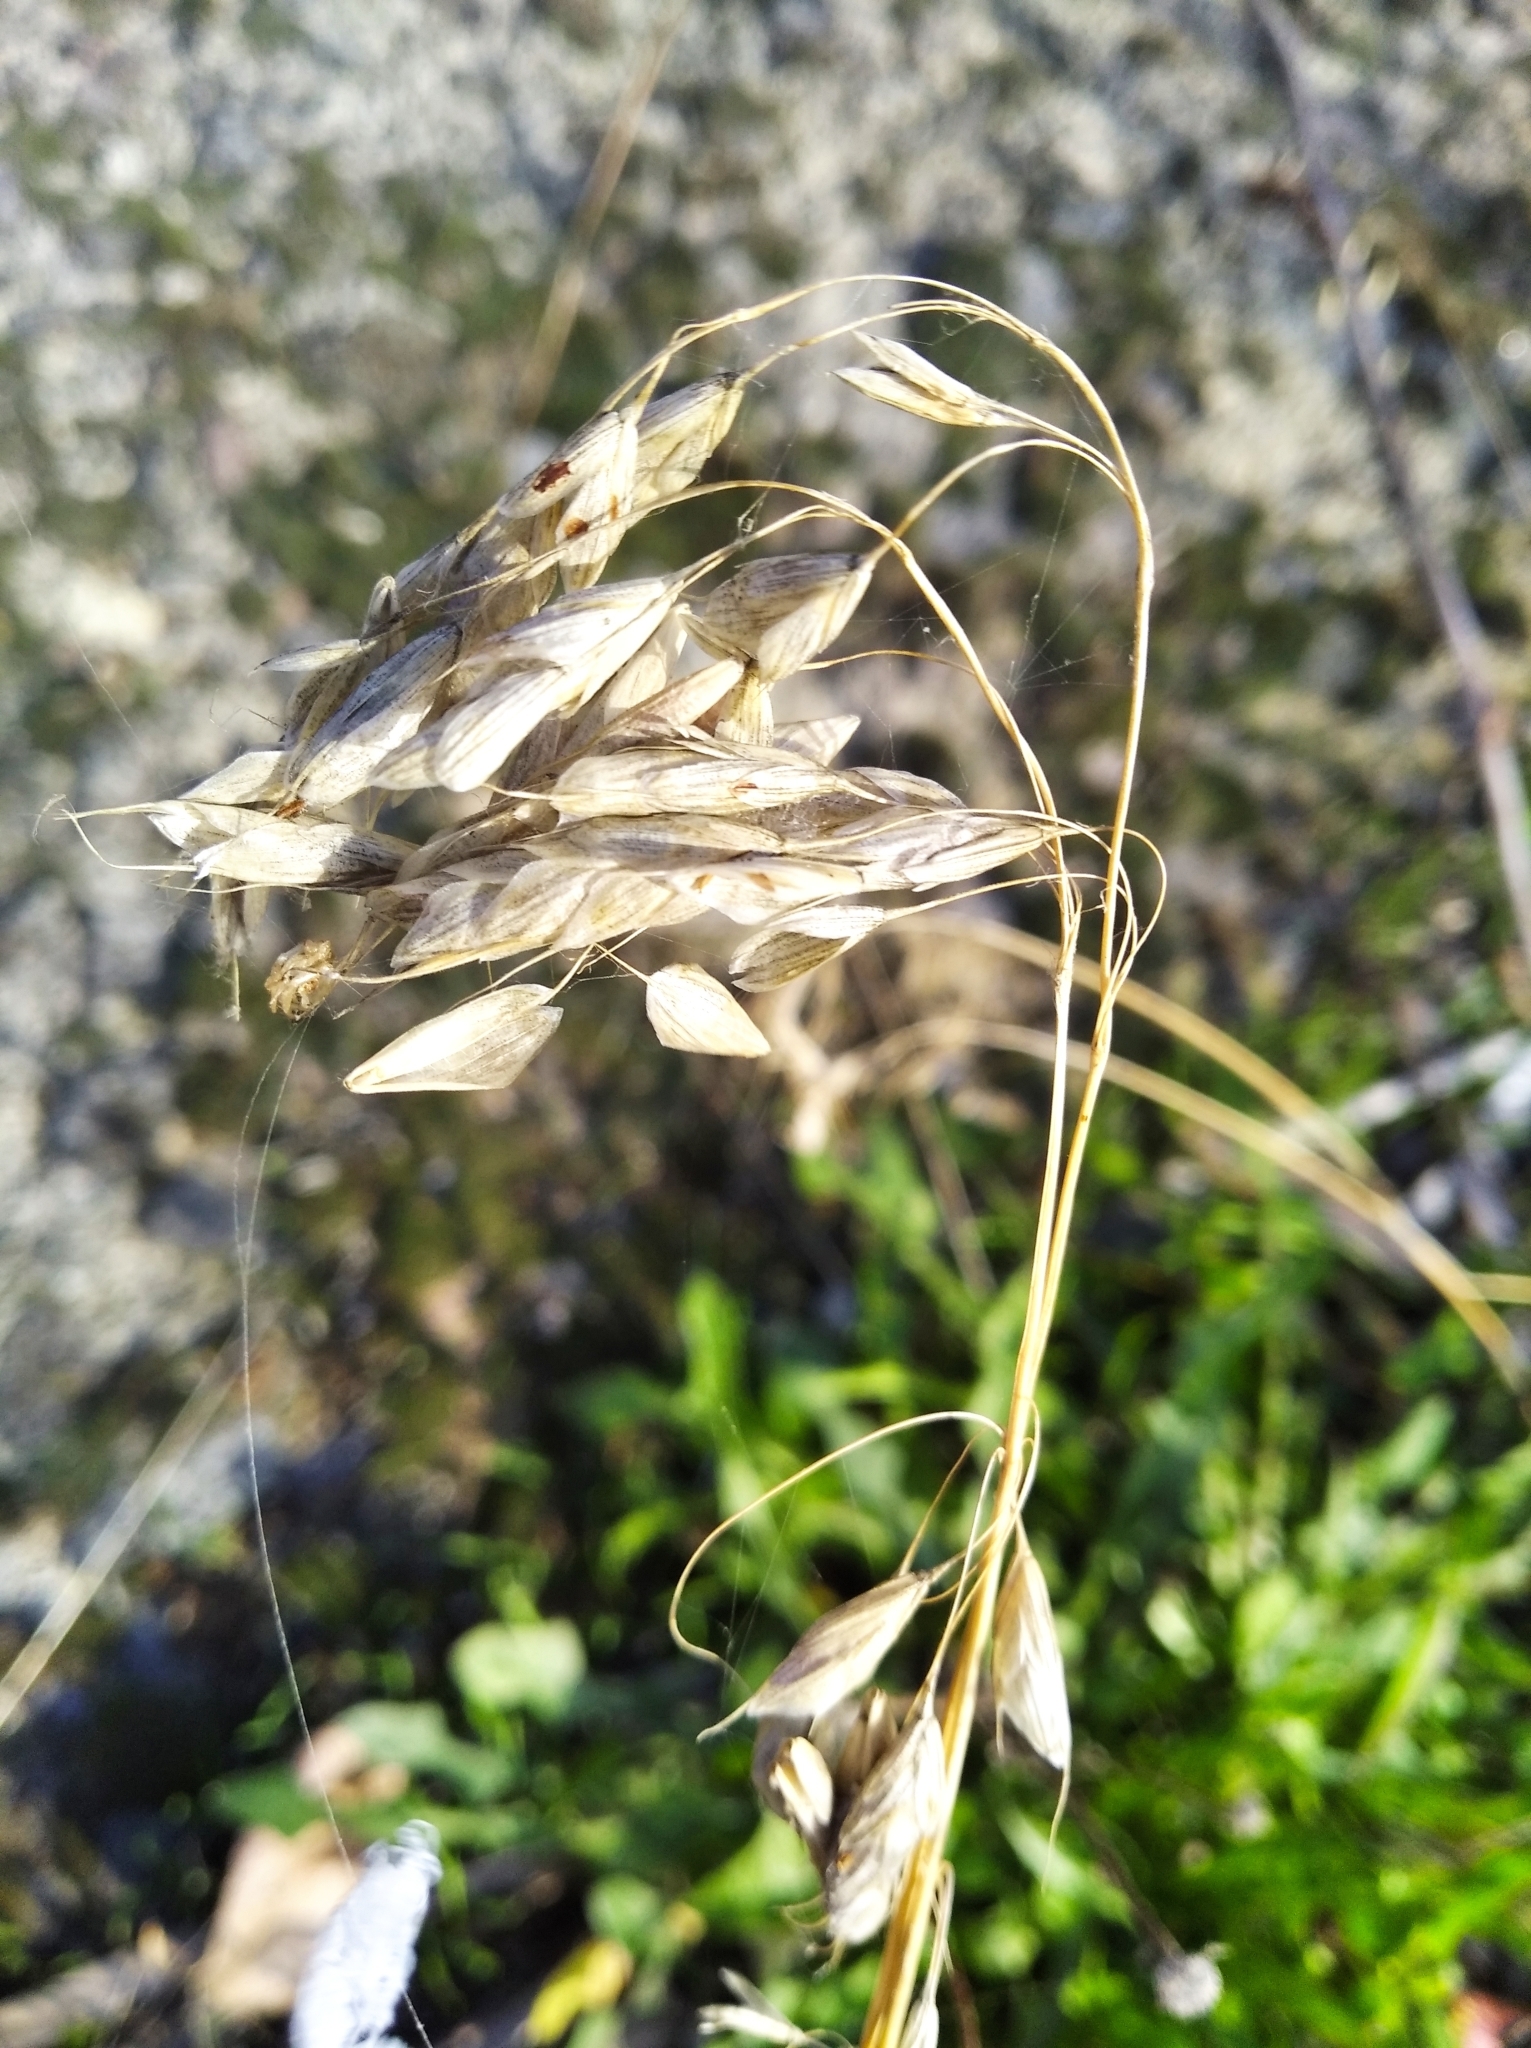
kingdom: Plantae
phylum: Tracheophyta
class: Liliopsida
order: Poales
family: Poaceae
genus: Bromus
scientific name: Bromus squarrosus
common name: Corn brome
